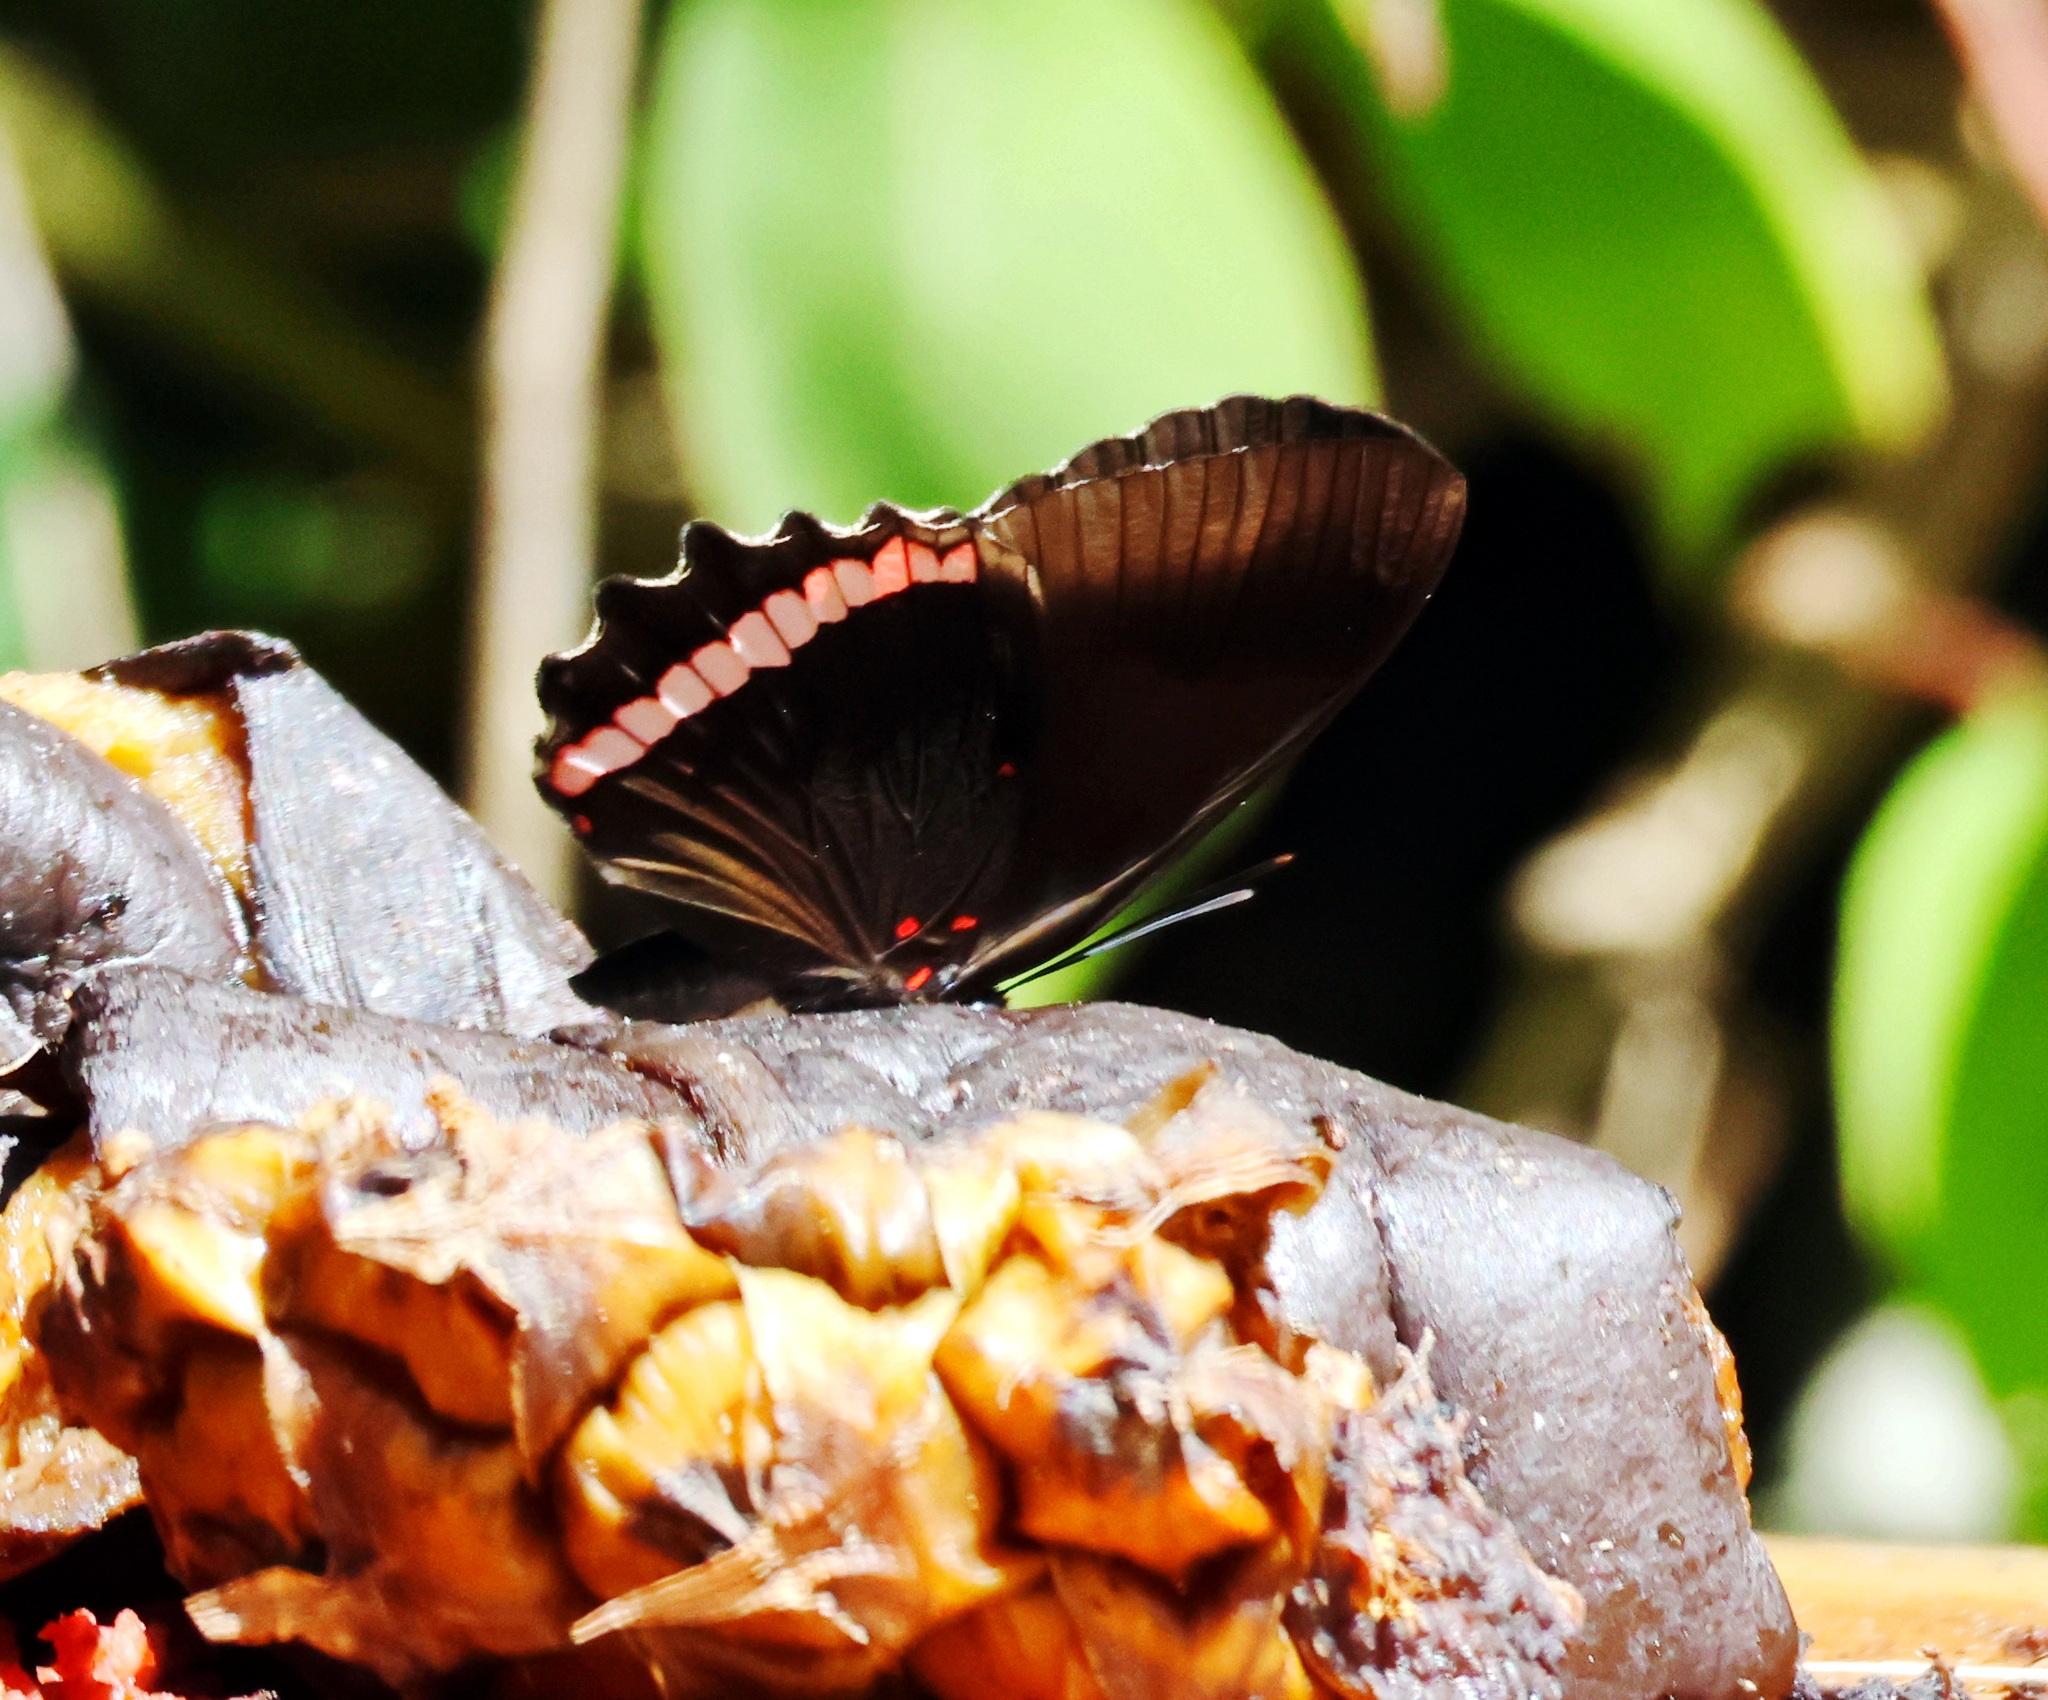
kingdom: Animalia
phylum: Arthropoda
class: Insecta
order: Lepidoptera
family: Nymphalidae
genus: Biblis
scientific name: Biblis aganisa
